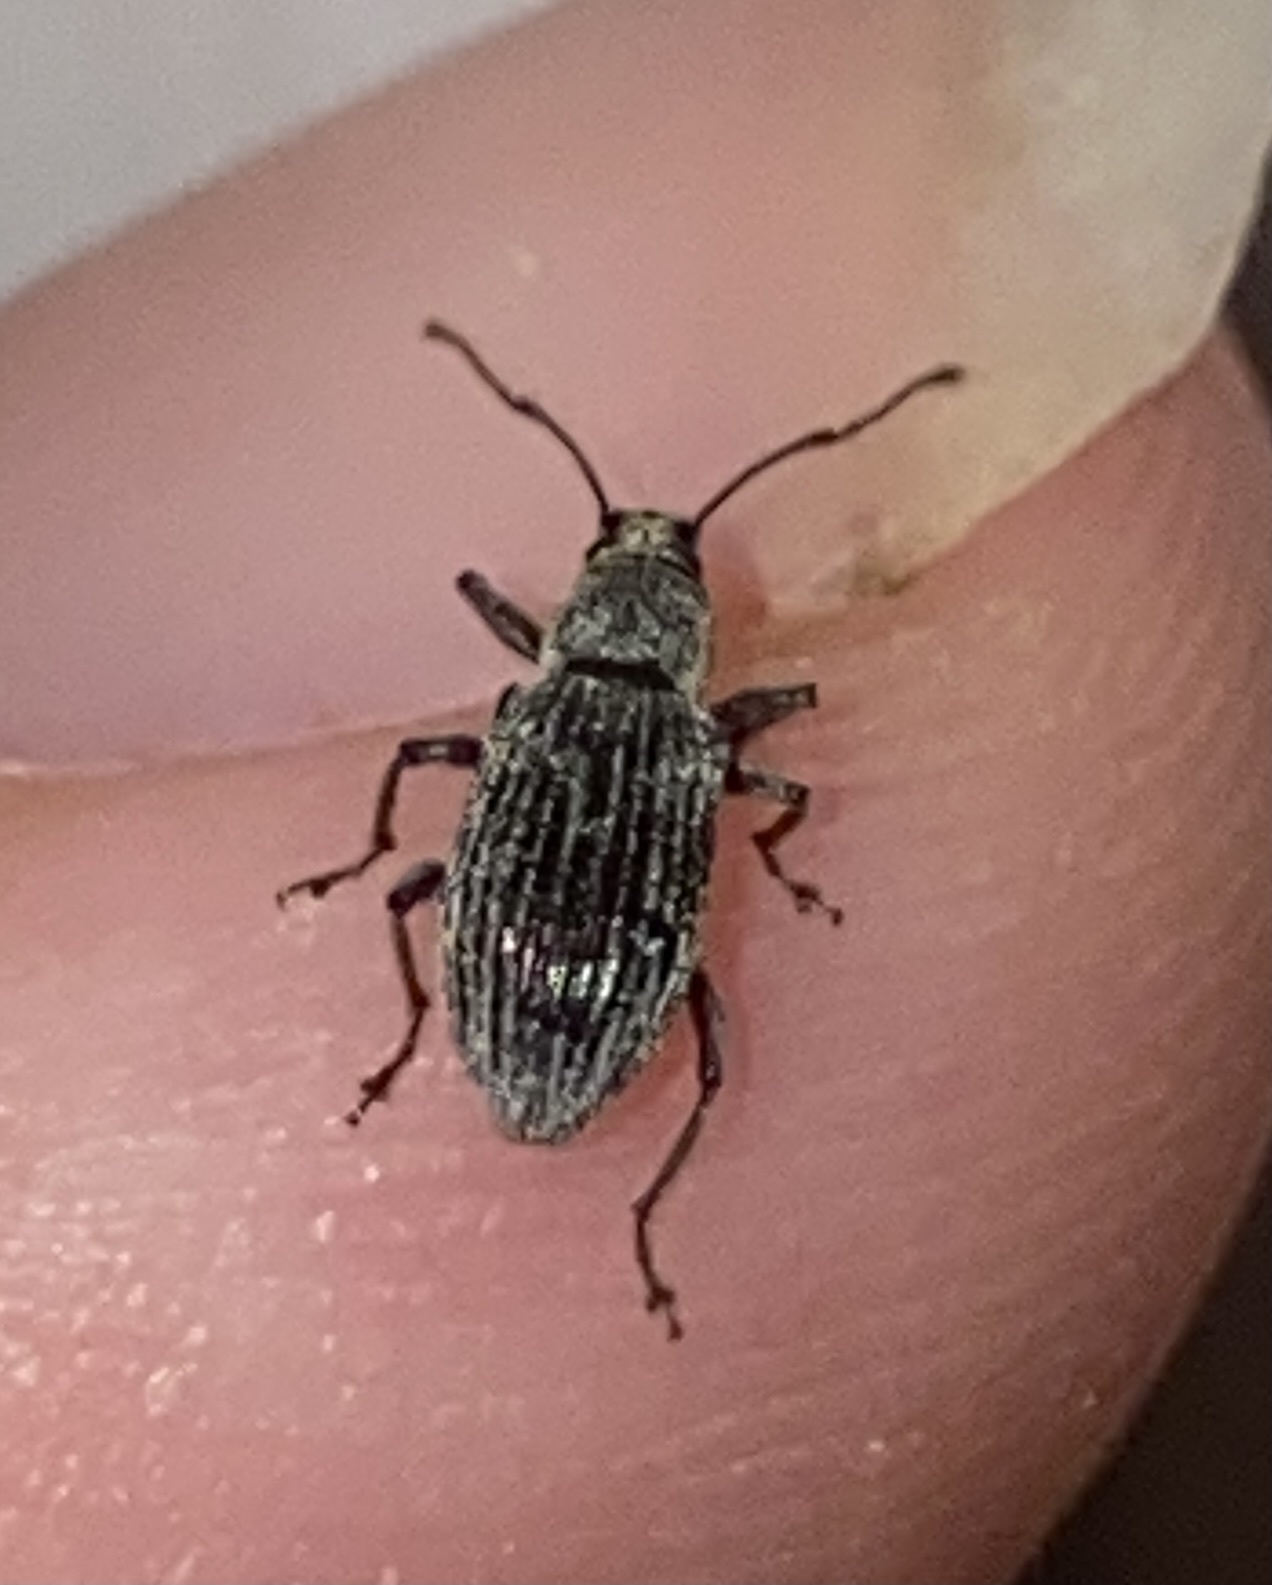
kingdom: Animalia
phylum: Arthropoda
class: Insecta
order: Coleoptera
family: Curculionidae
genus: Cyrtepistomus
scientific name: Cyrtepistomus castaneus
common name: Weevil
